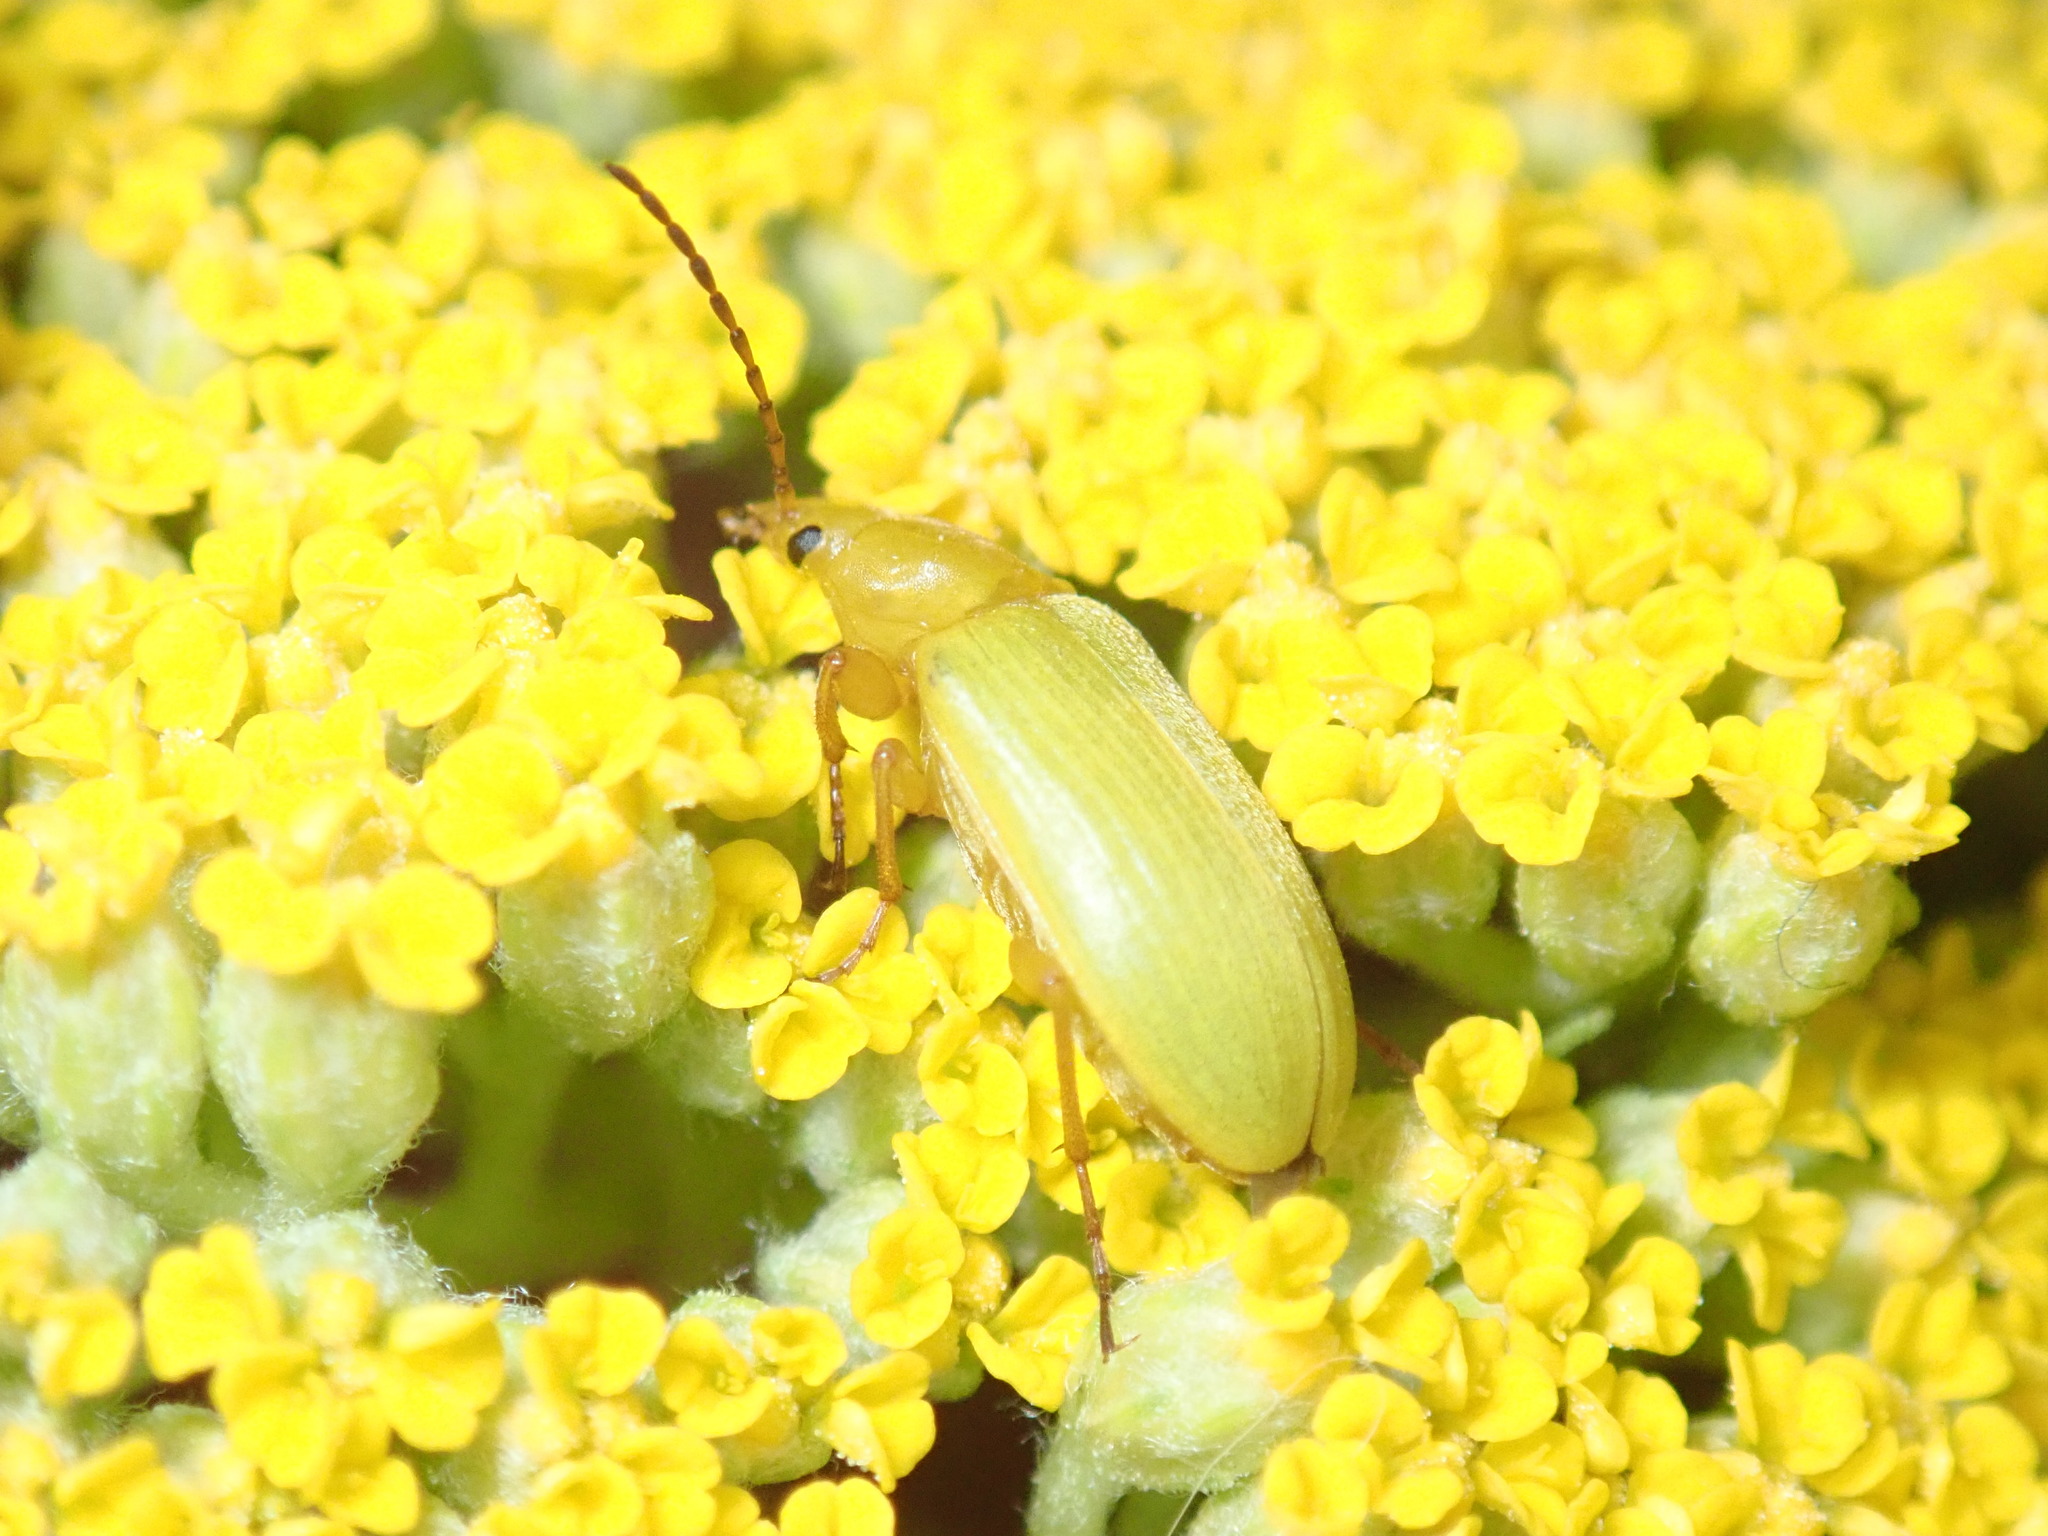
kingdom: Animalia
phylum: Arthropoda
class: Insecta
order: Coleoptera
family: Tenebrionidae
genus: Cteniopus
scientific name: Cteniopus sulphureus
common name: Sulphur beetle
